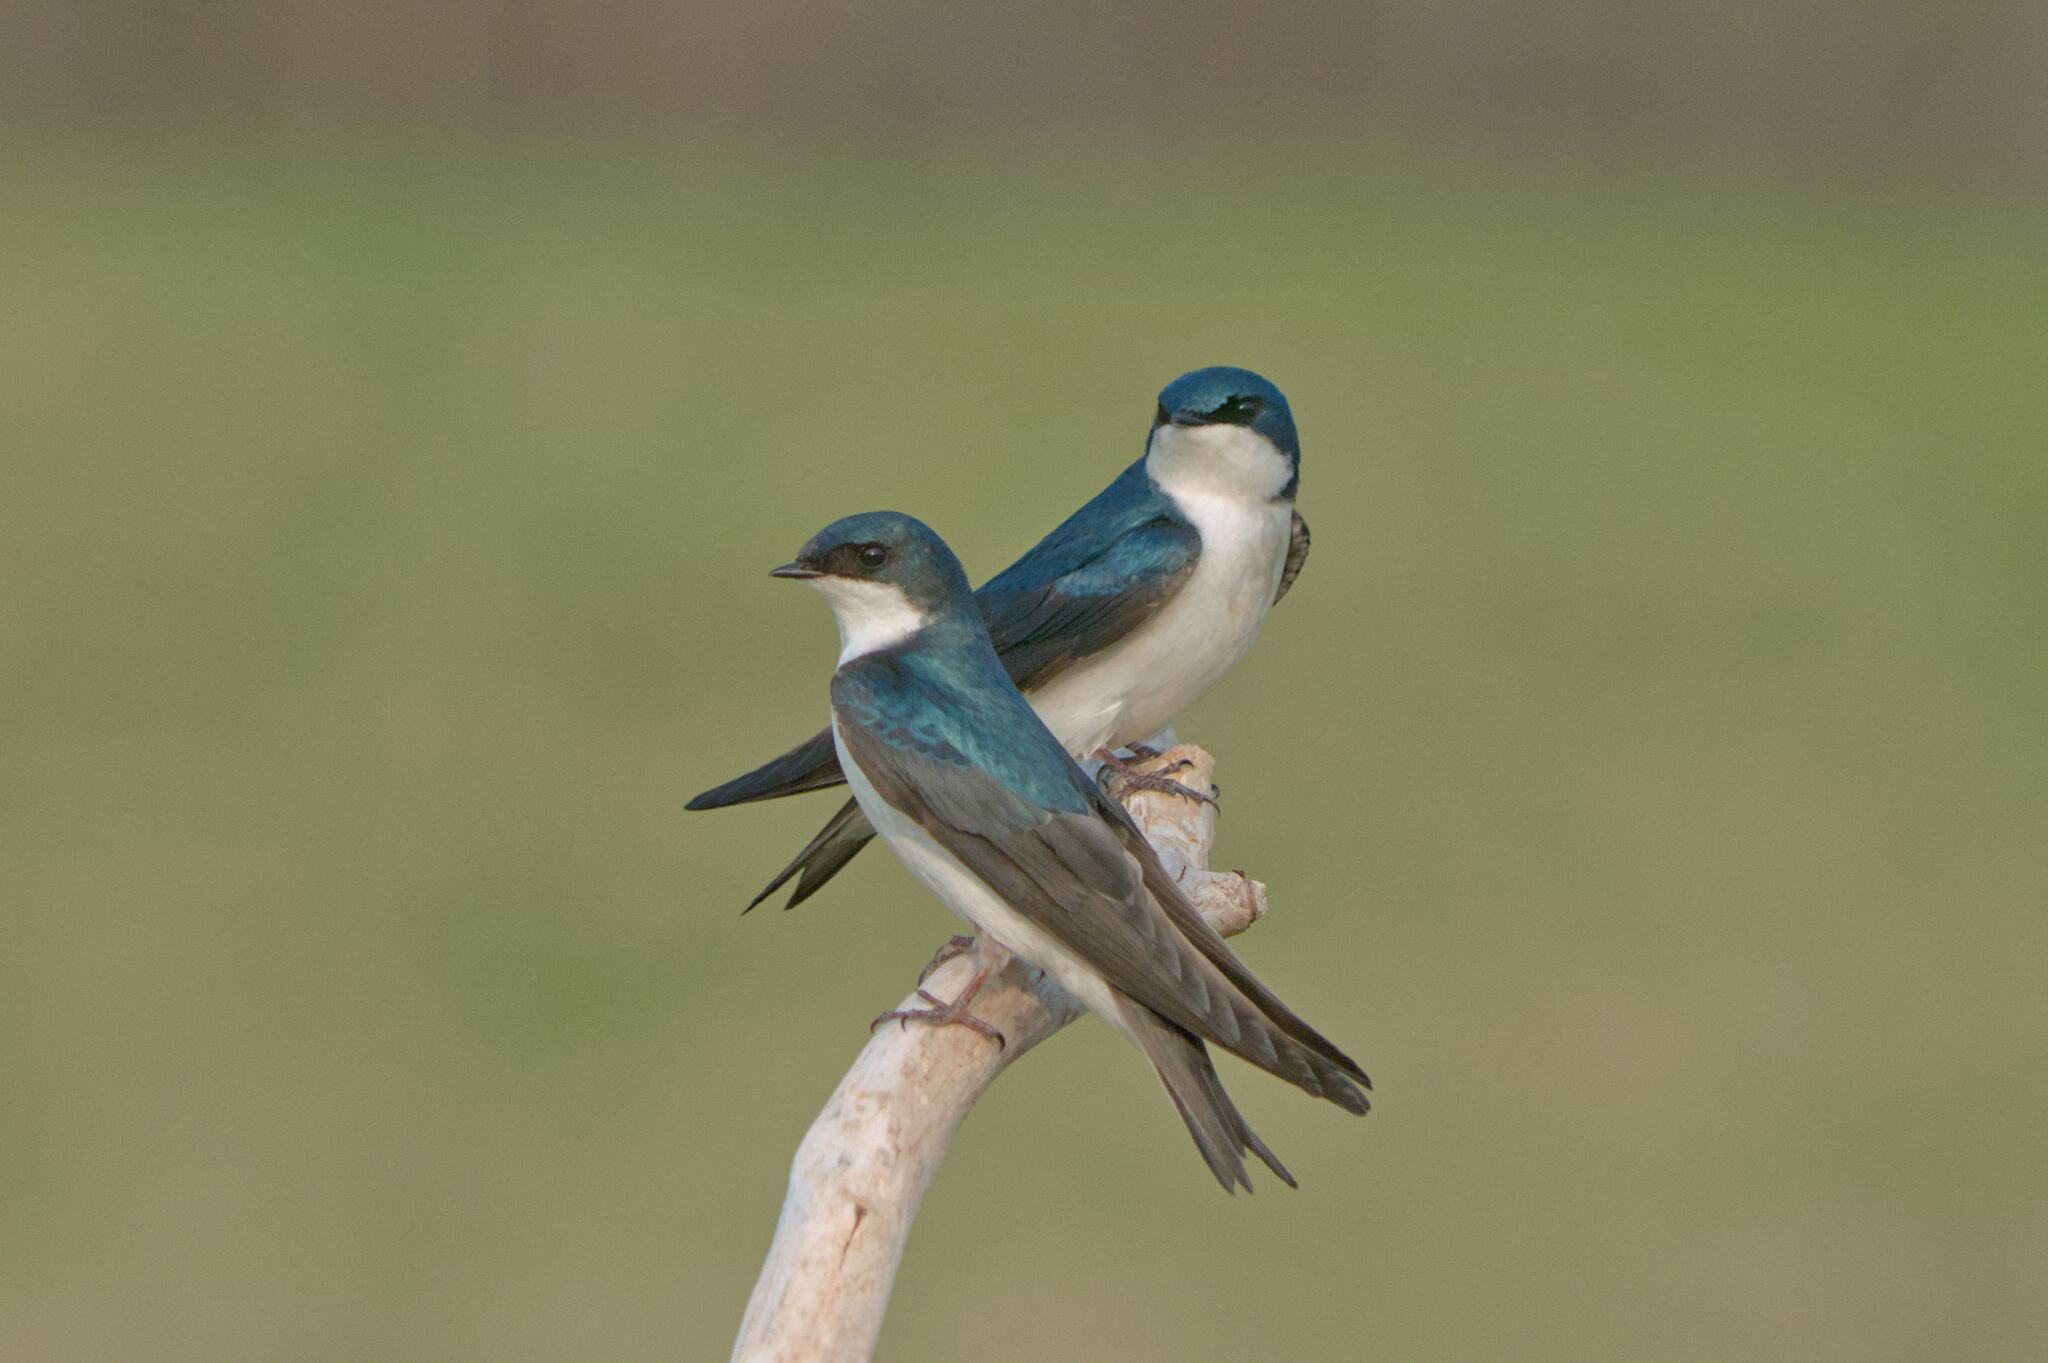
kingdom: Animalia
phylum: Chordata
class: Aves
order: Passeriformes
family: Hirundinidae
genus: Tachycineta
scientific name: Tachycineta bicolor
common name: Tree swallow
